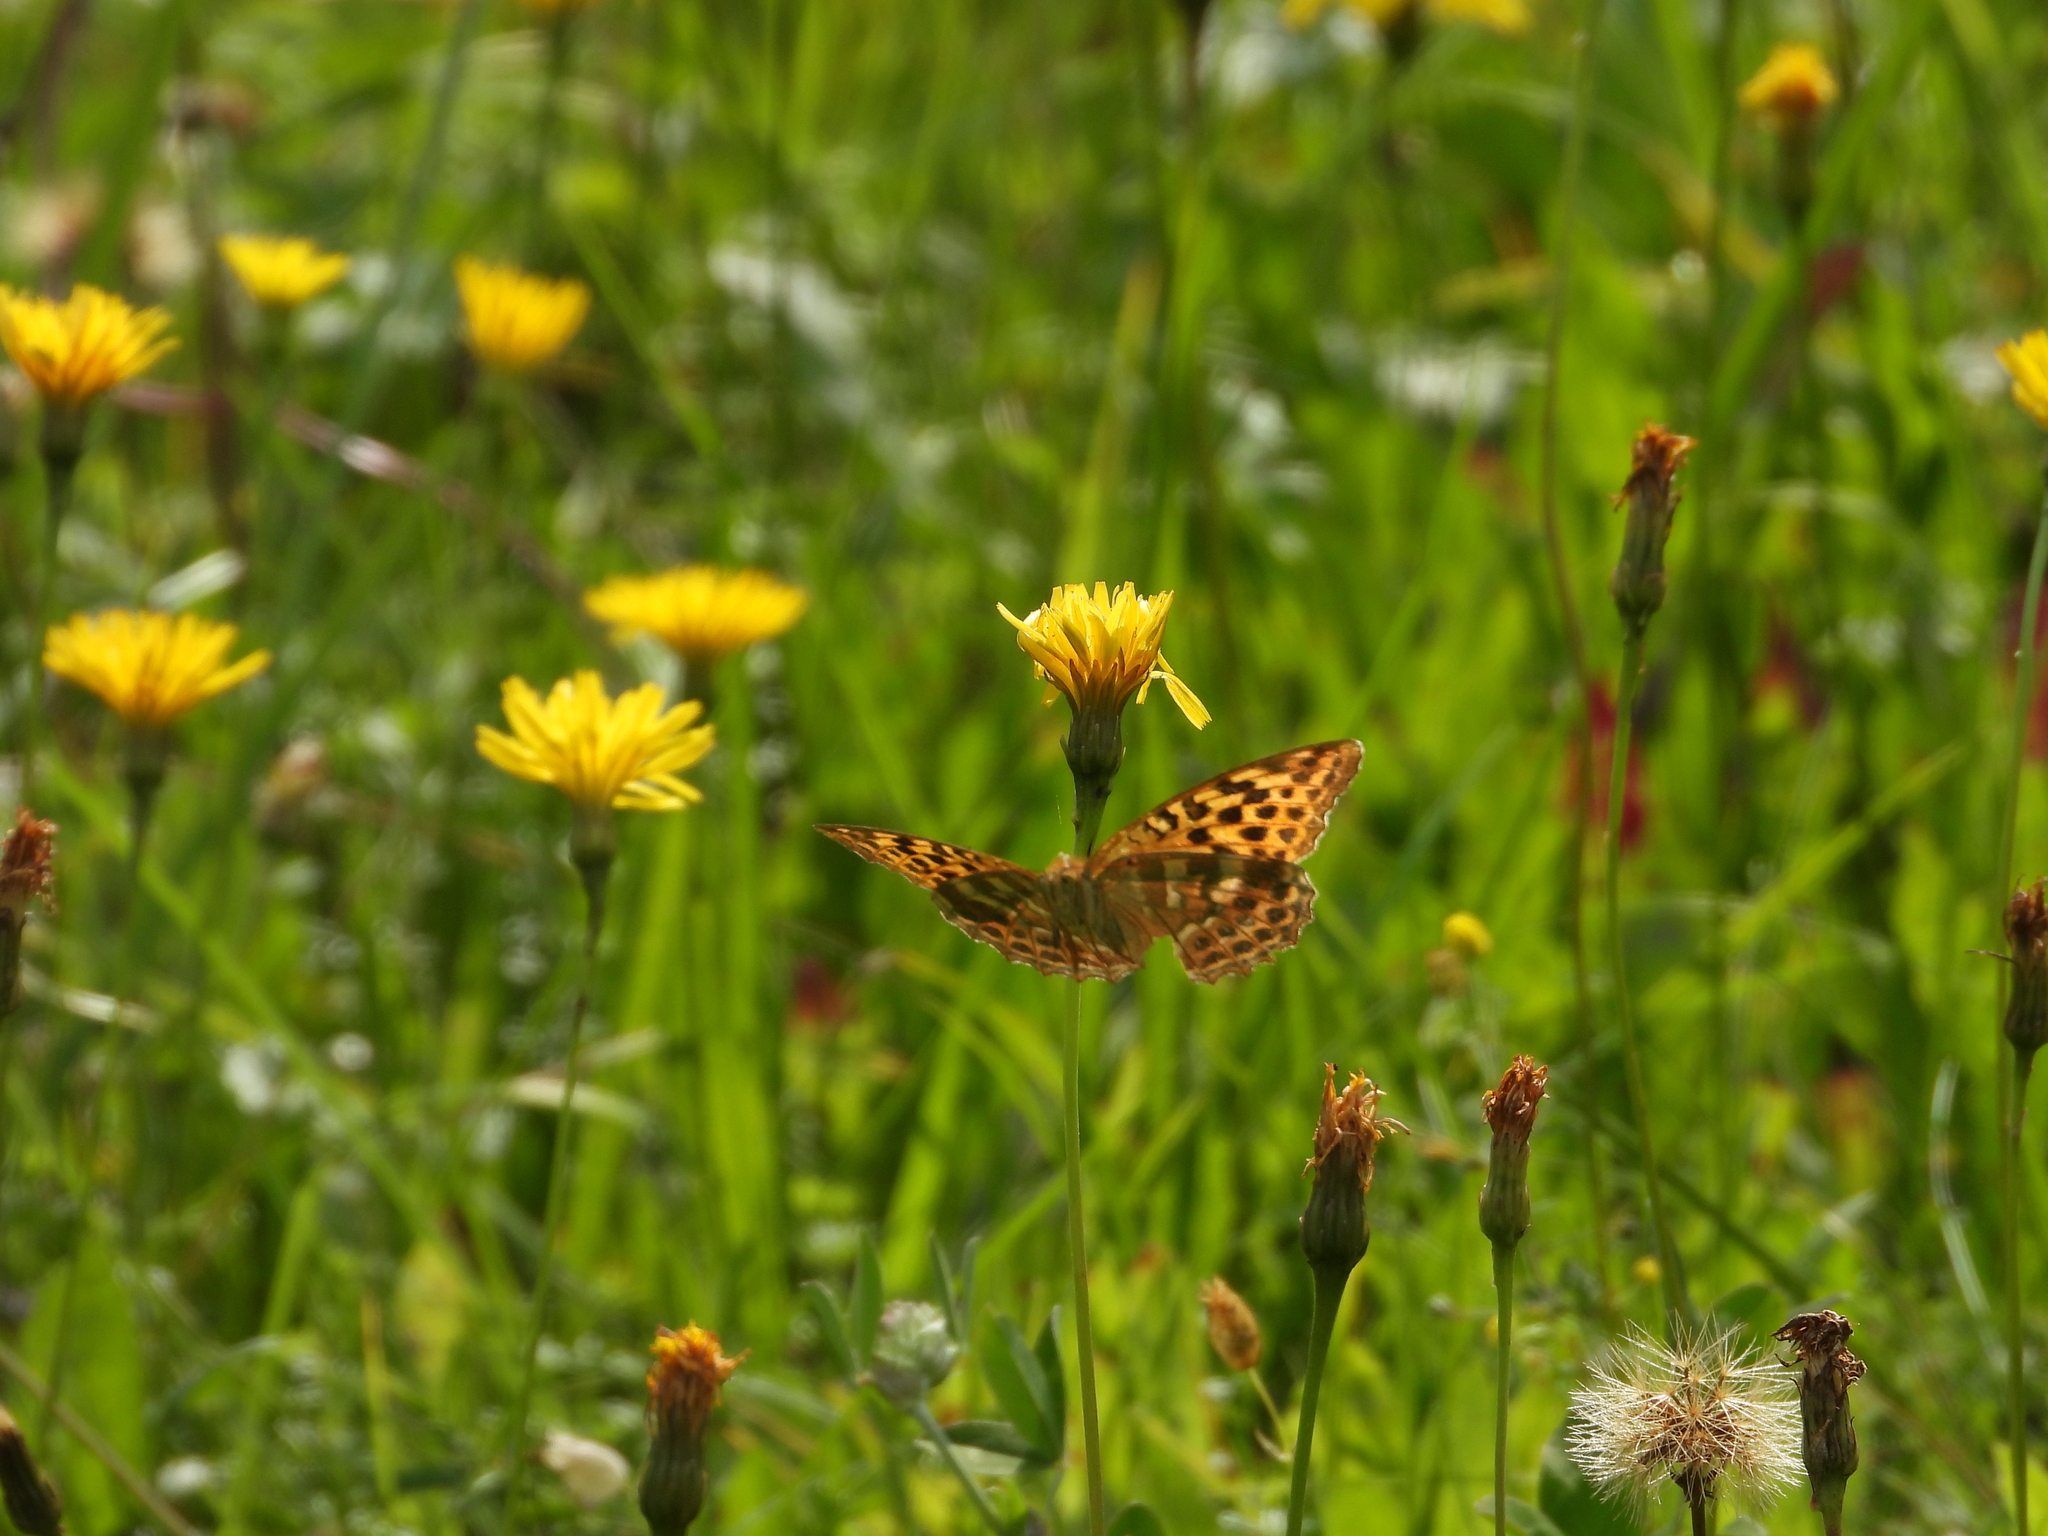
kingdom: Animalia
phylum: Arthropoda
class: Insecta
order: Lepidoptera
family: Nymphalidae
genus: Argynnis
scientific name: Argynnis paphia
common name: Silver-washed fritillary
